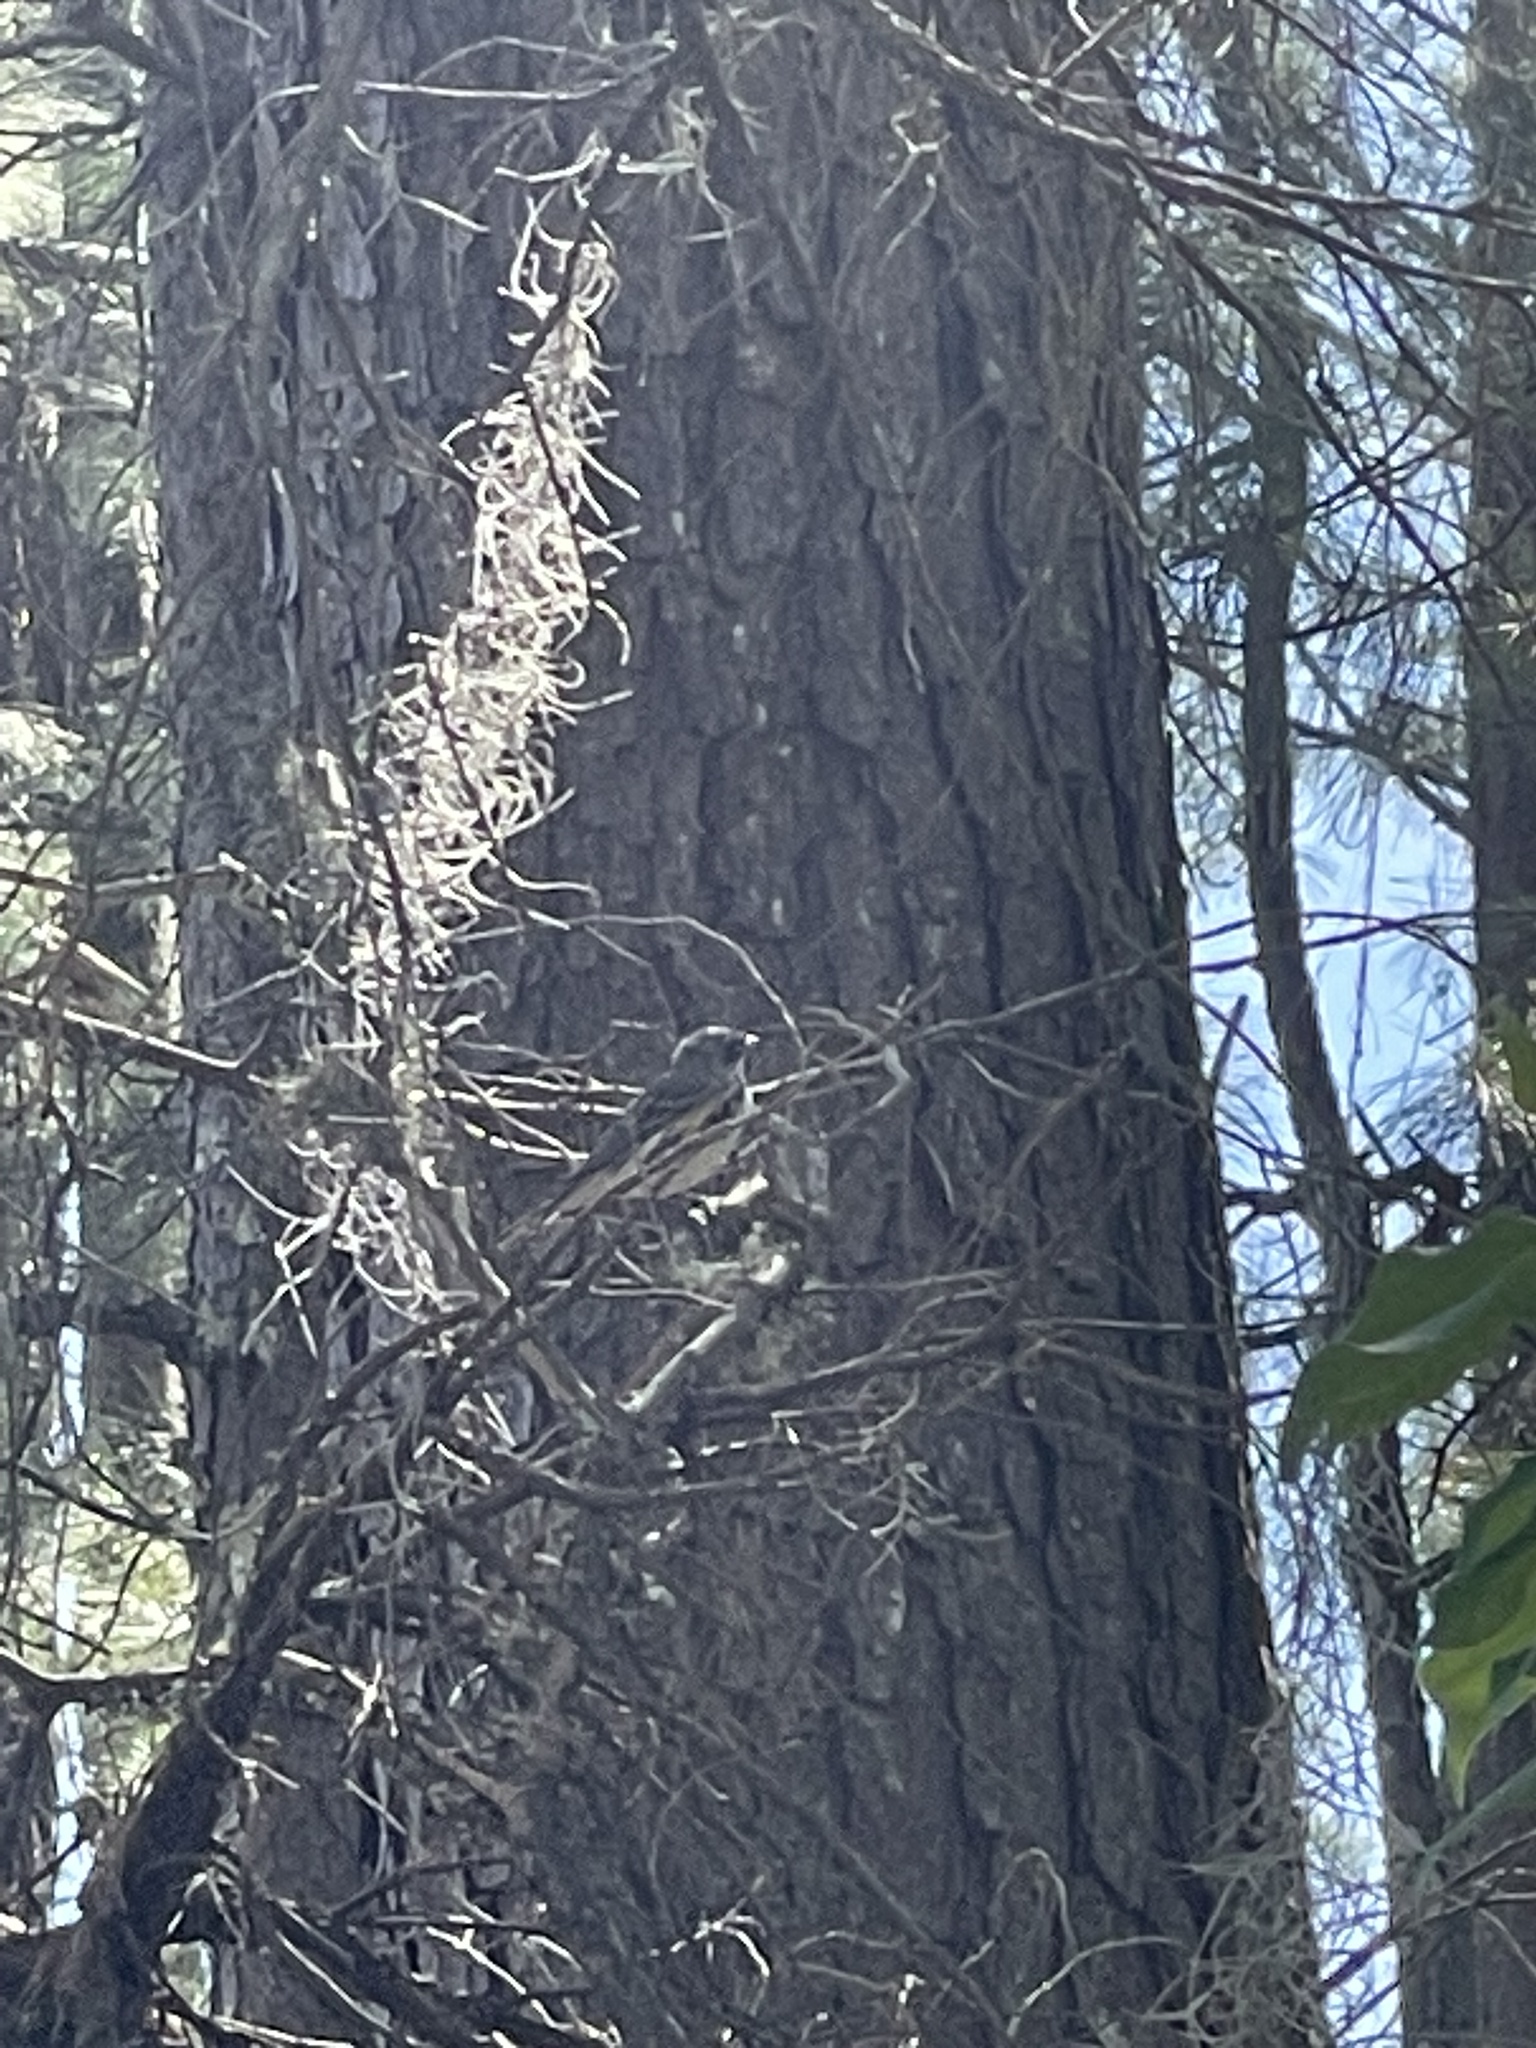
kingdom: Animalia
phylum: Chordata
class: Aves
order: Passeriformes
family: Parulidae
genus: Setophaga
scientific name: Setophaga coronata
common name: Myrtle warbler
